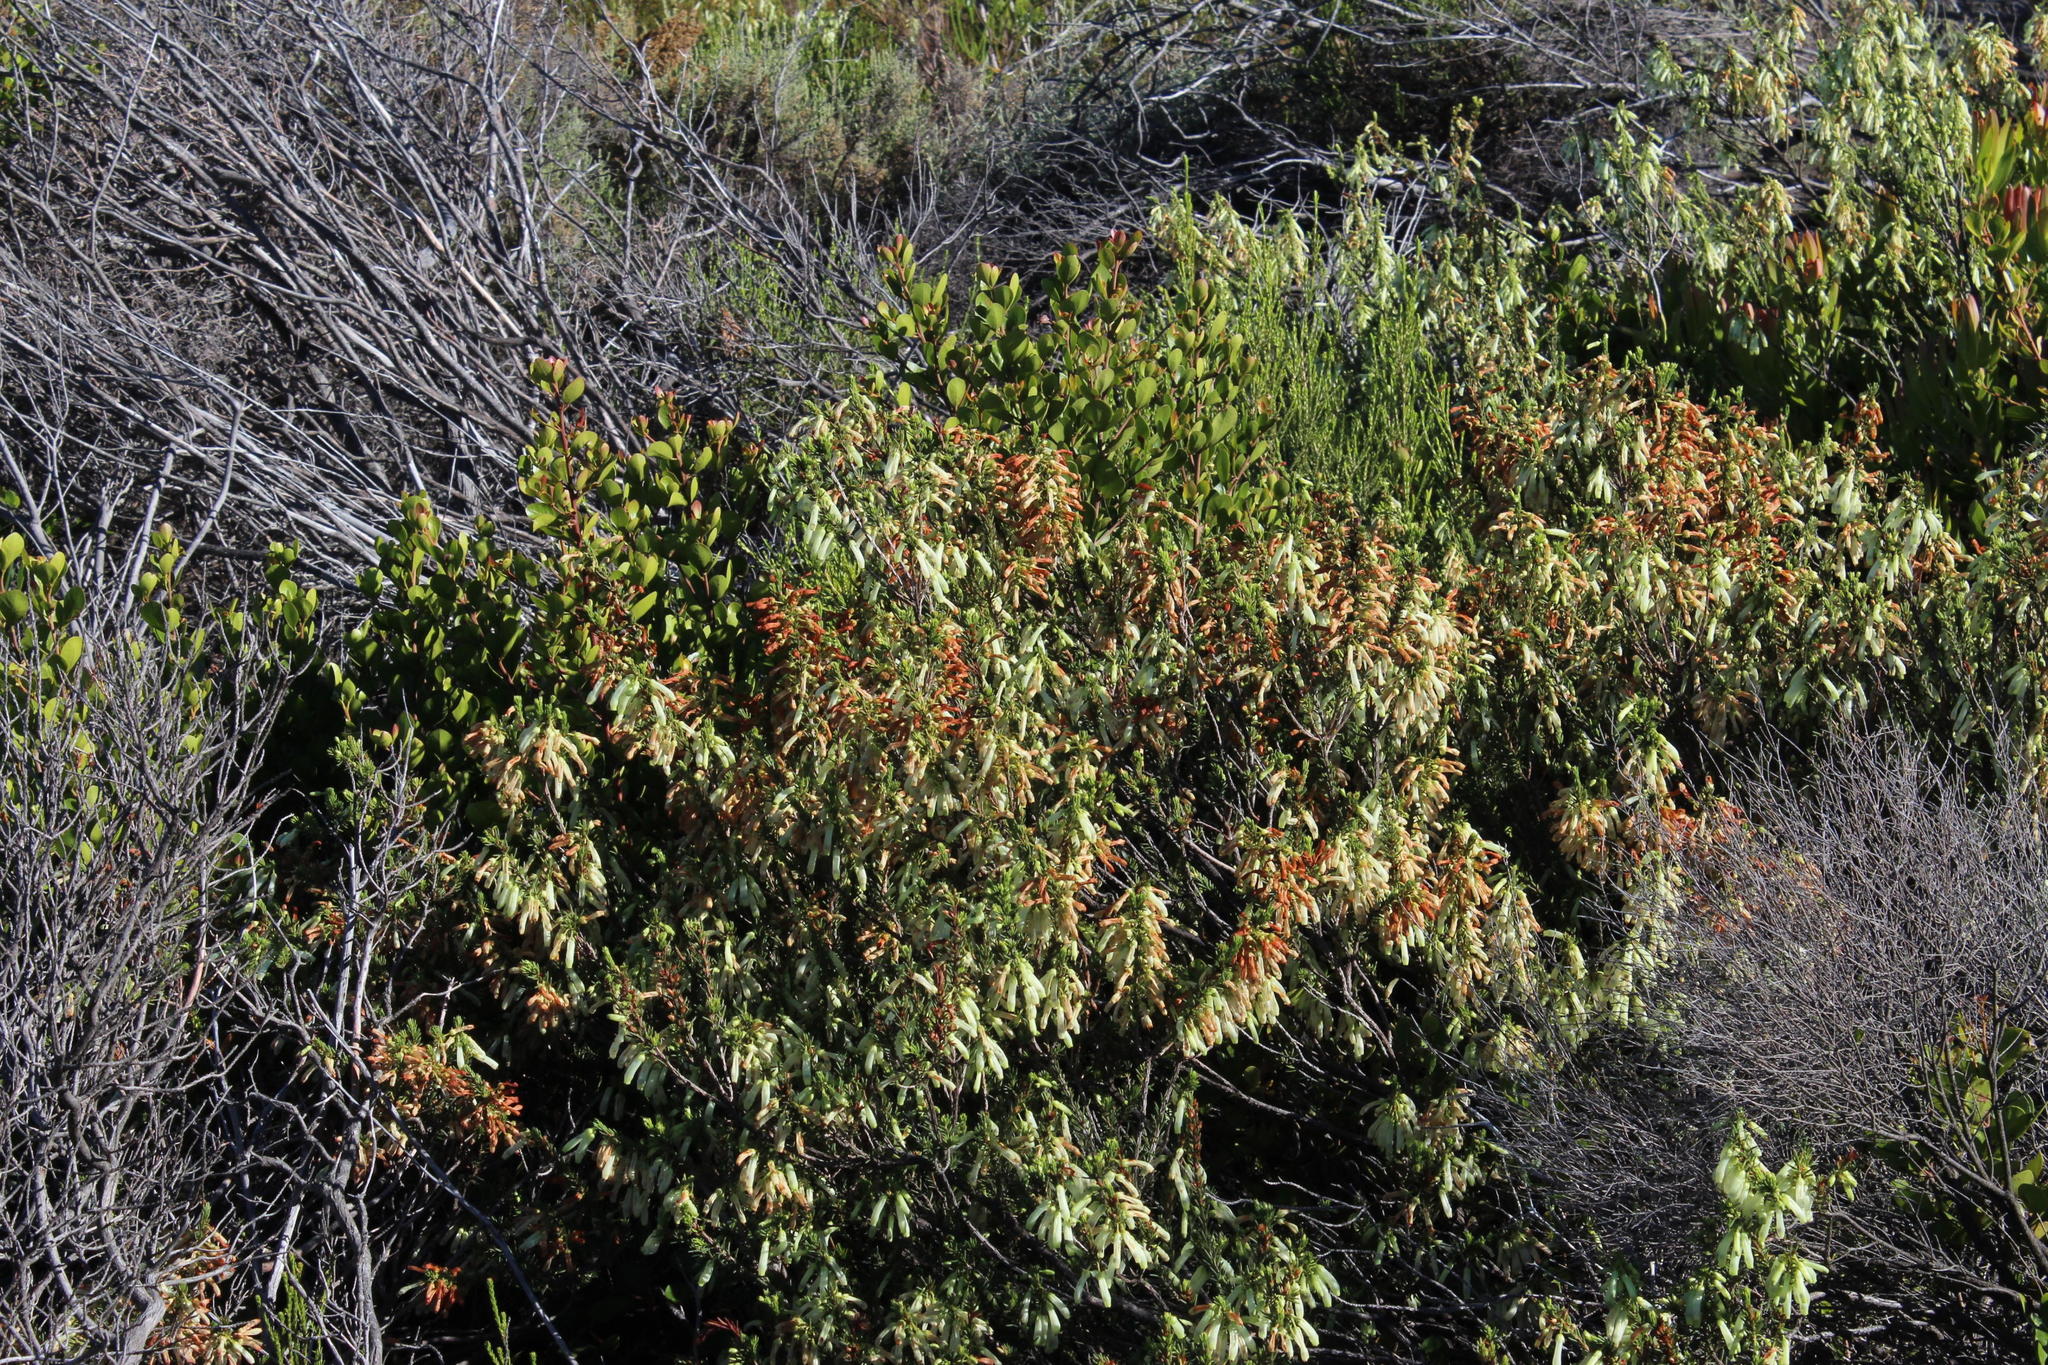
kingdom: Plantae
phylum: Tracheophyta
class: Magnoliopsida
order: Ericales
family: Ericaceae
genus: Erica
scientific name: Erica mammosa
